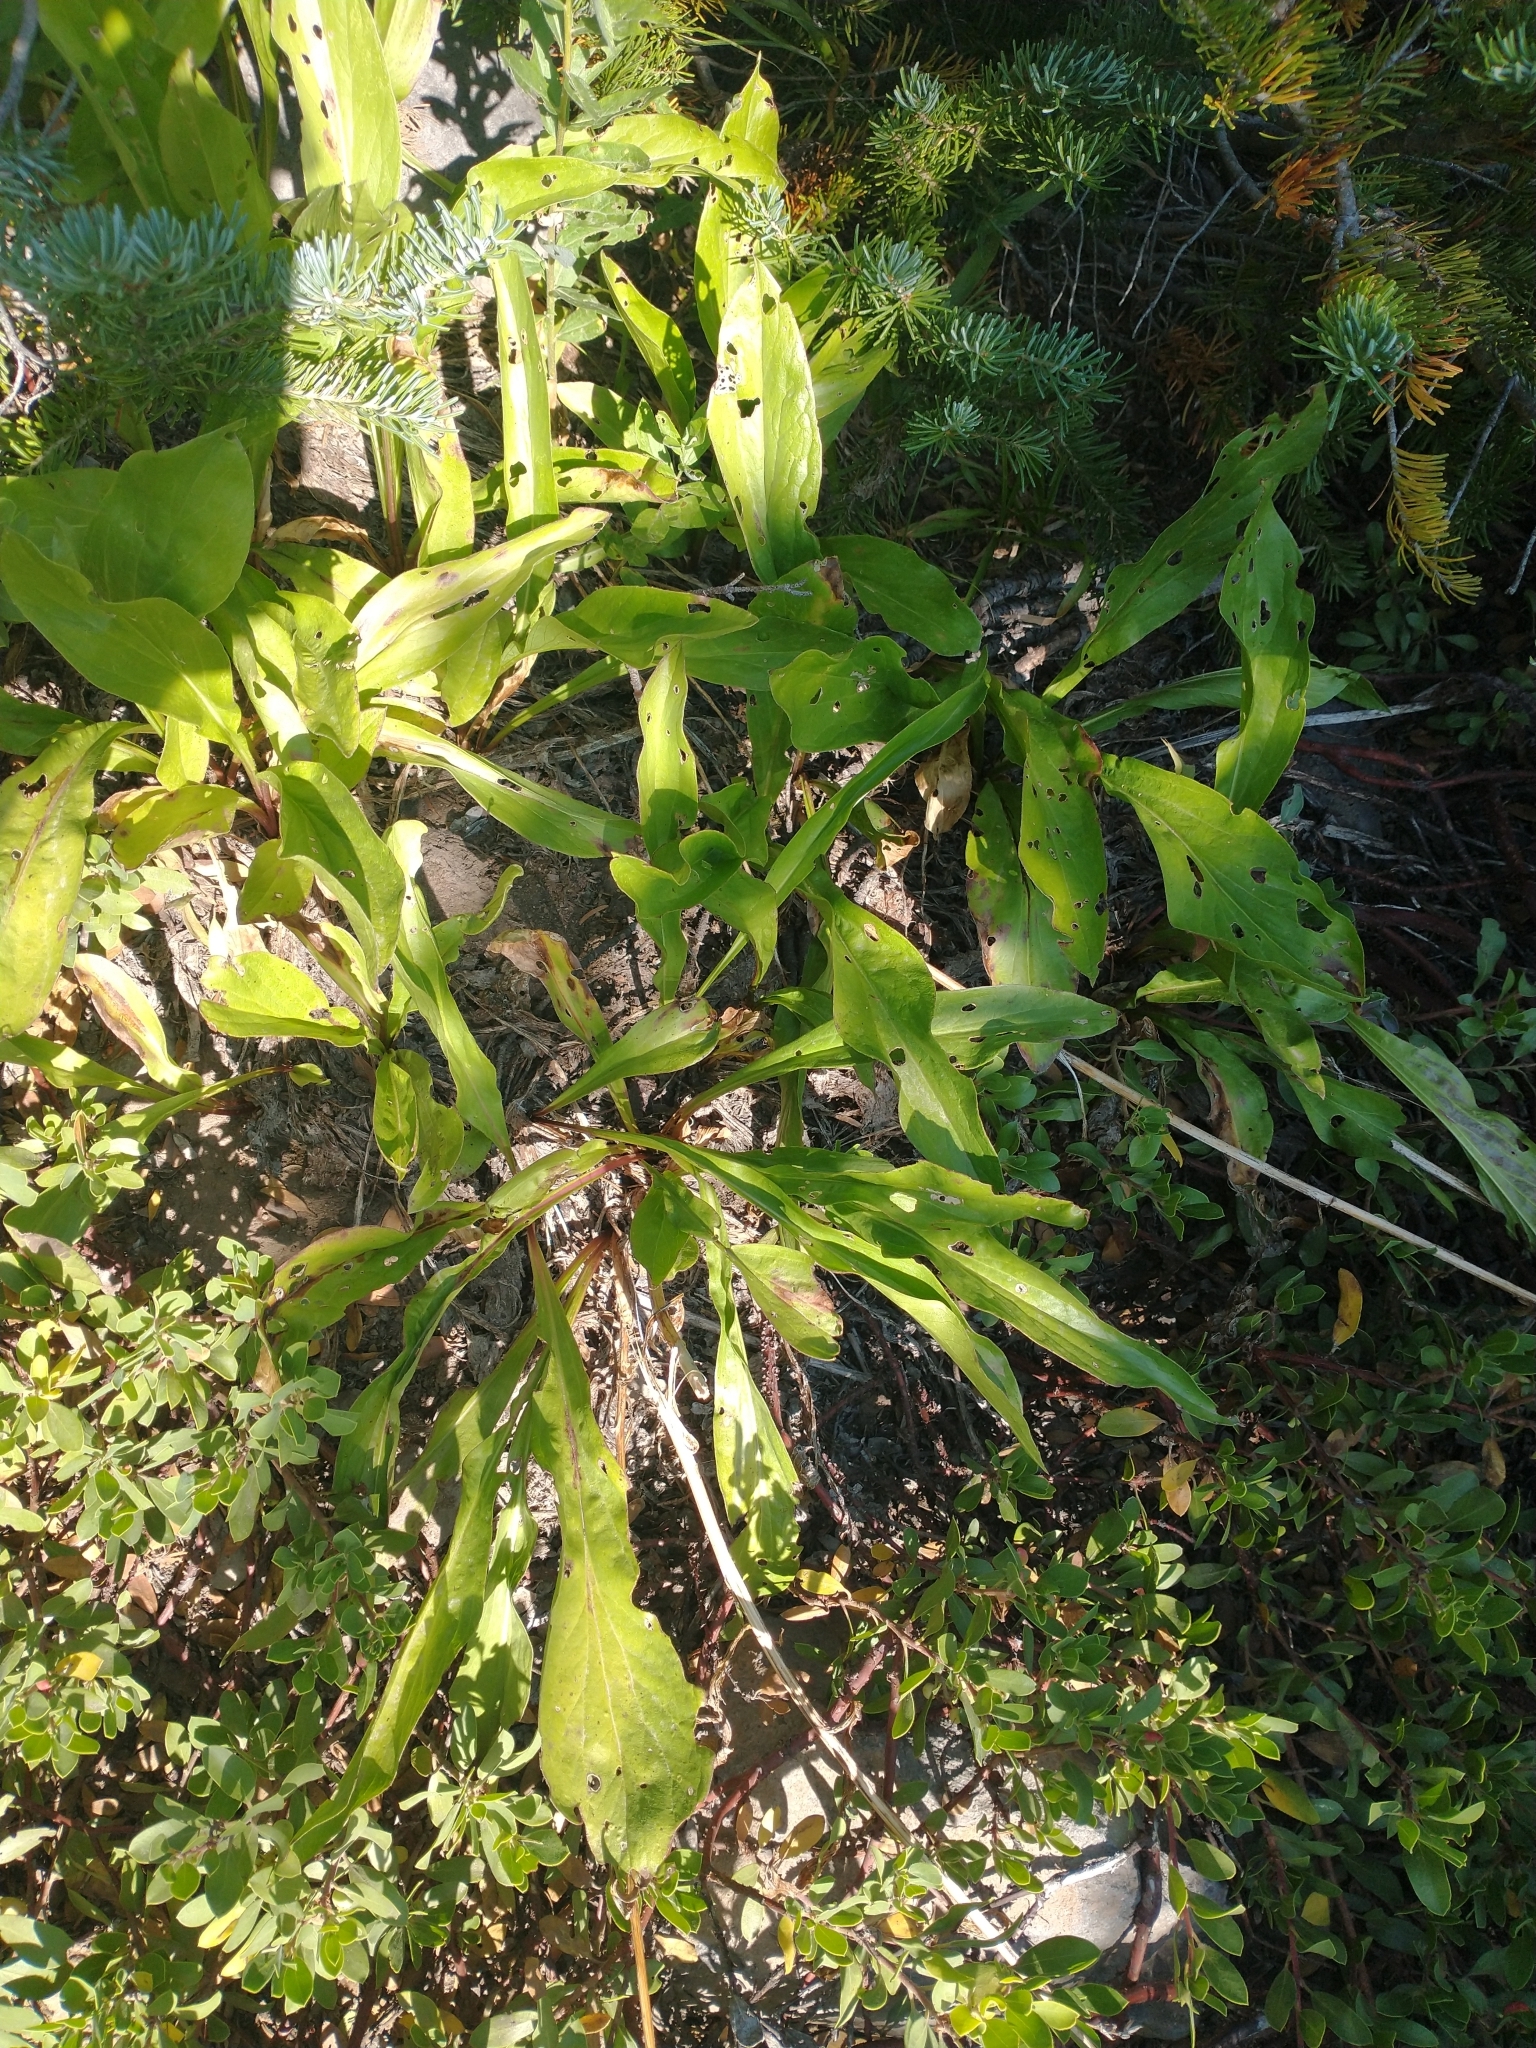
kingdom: Plantae
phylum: Tracheophyta
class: Magnoliopsida
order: Asterales
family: Asteraceae
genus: Rainiera
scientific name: Rainiera stricta
